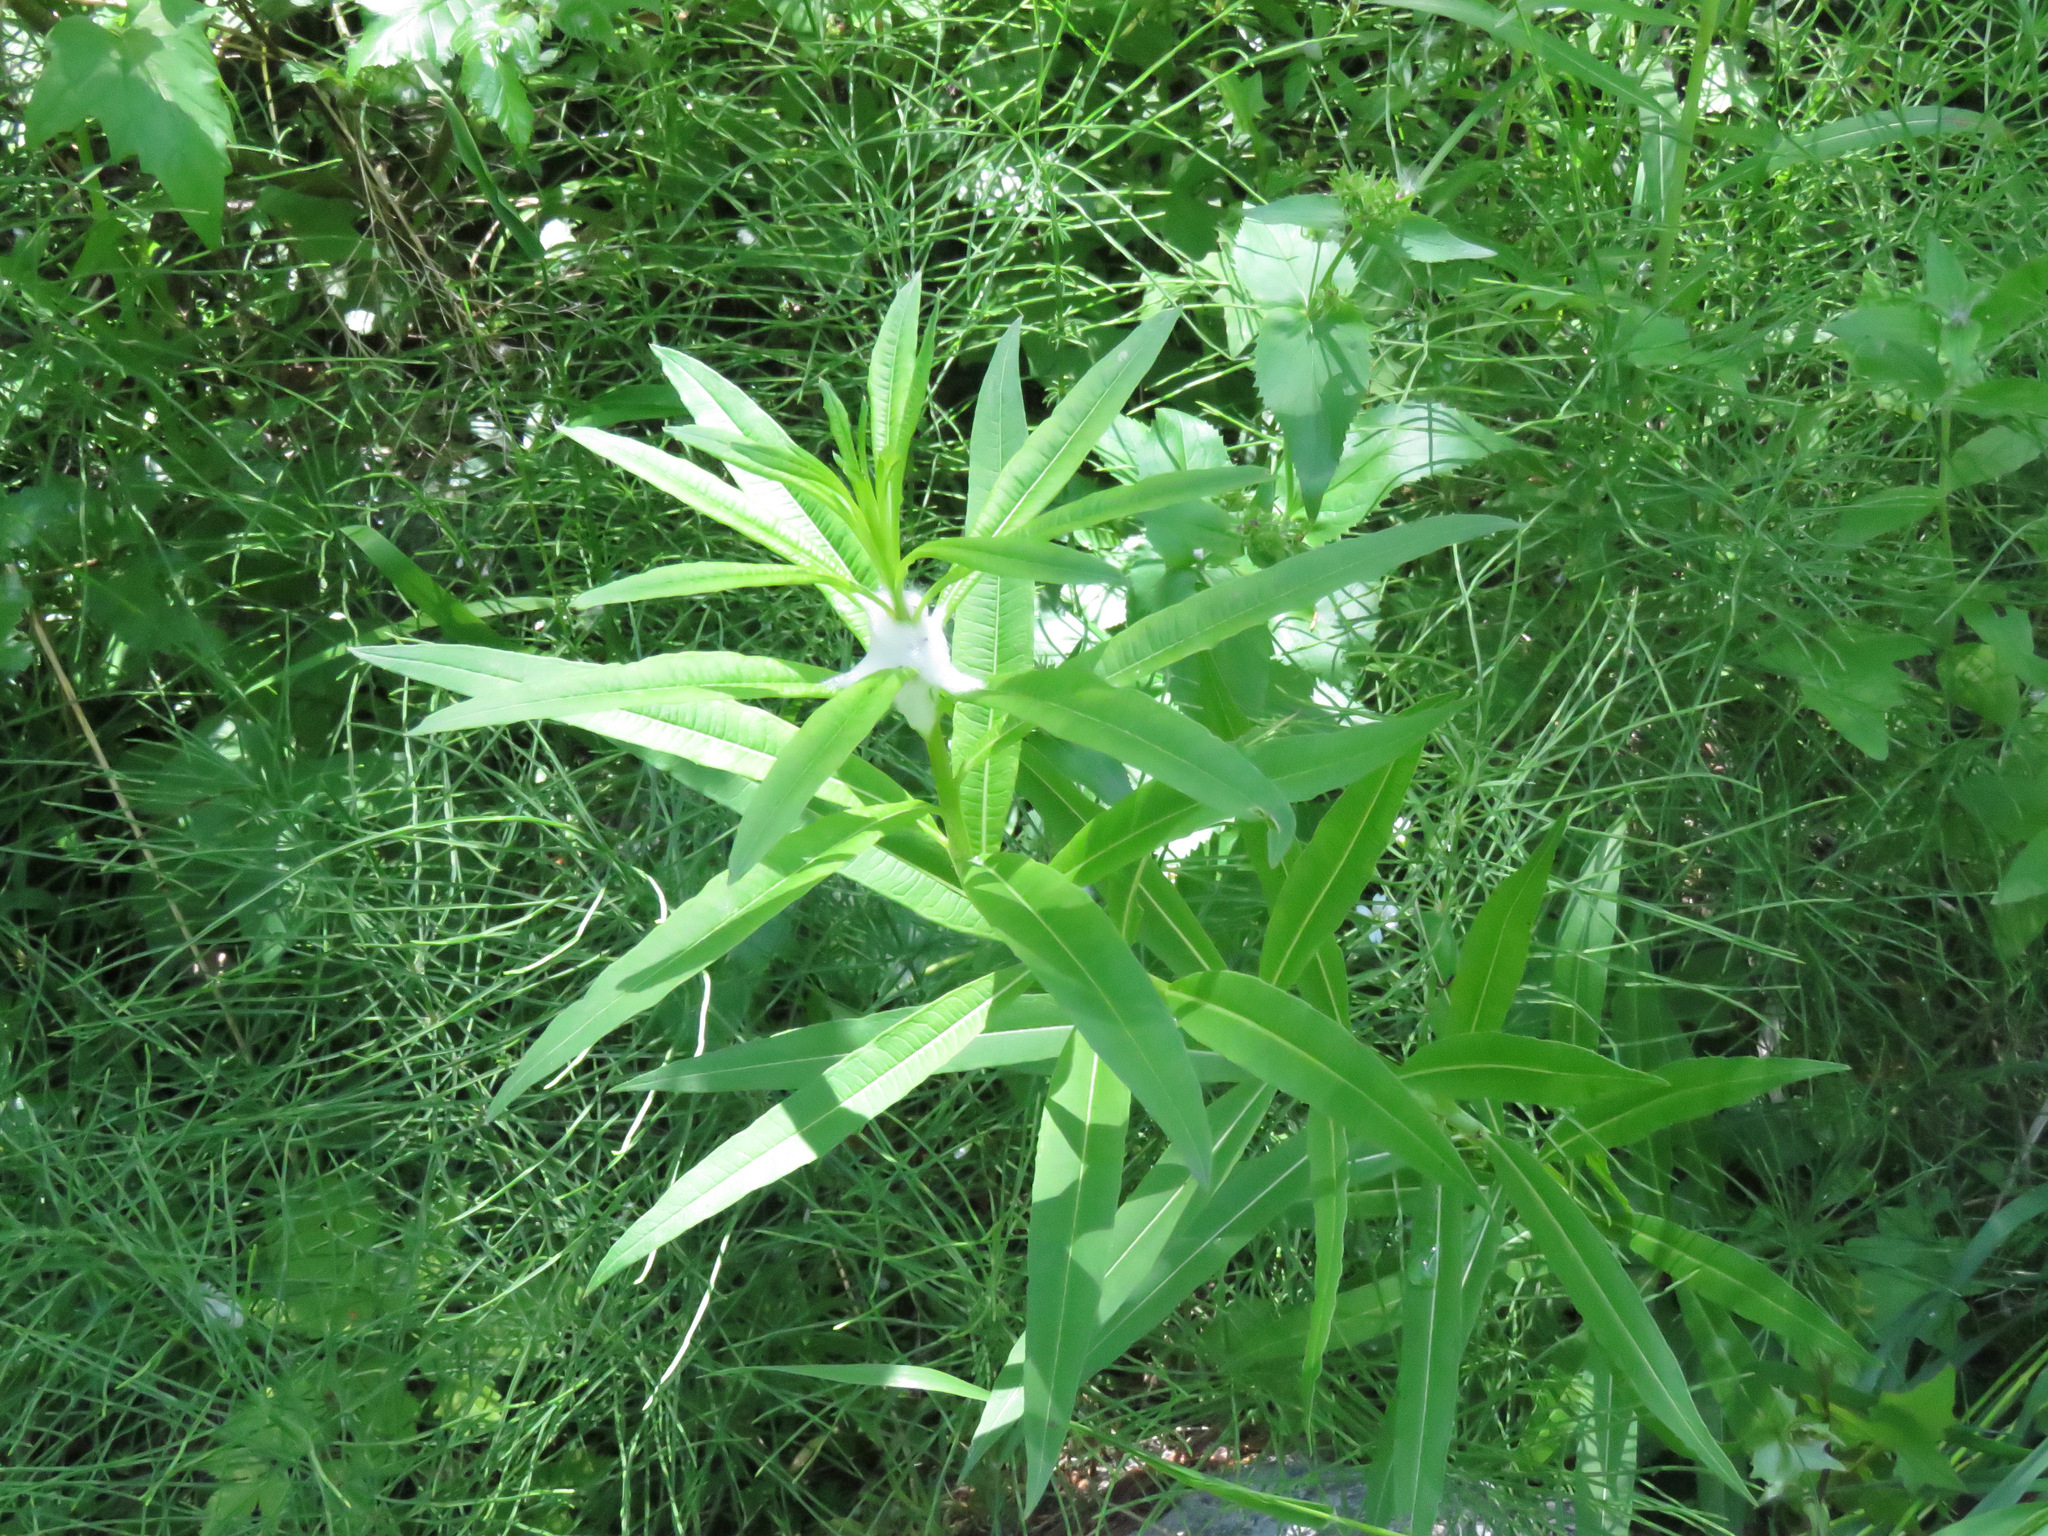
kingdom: Plantae
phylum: Tracheophyta
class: Magnoliopsida
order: Myrtales
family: Onagraceae
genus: Chamaenerion
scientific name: Chamaenerion angustifolium
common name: Fireweed
